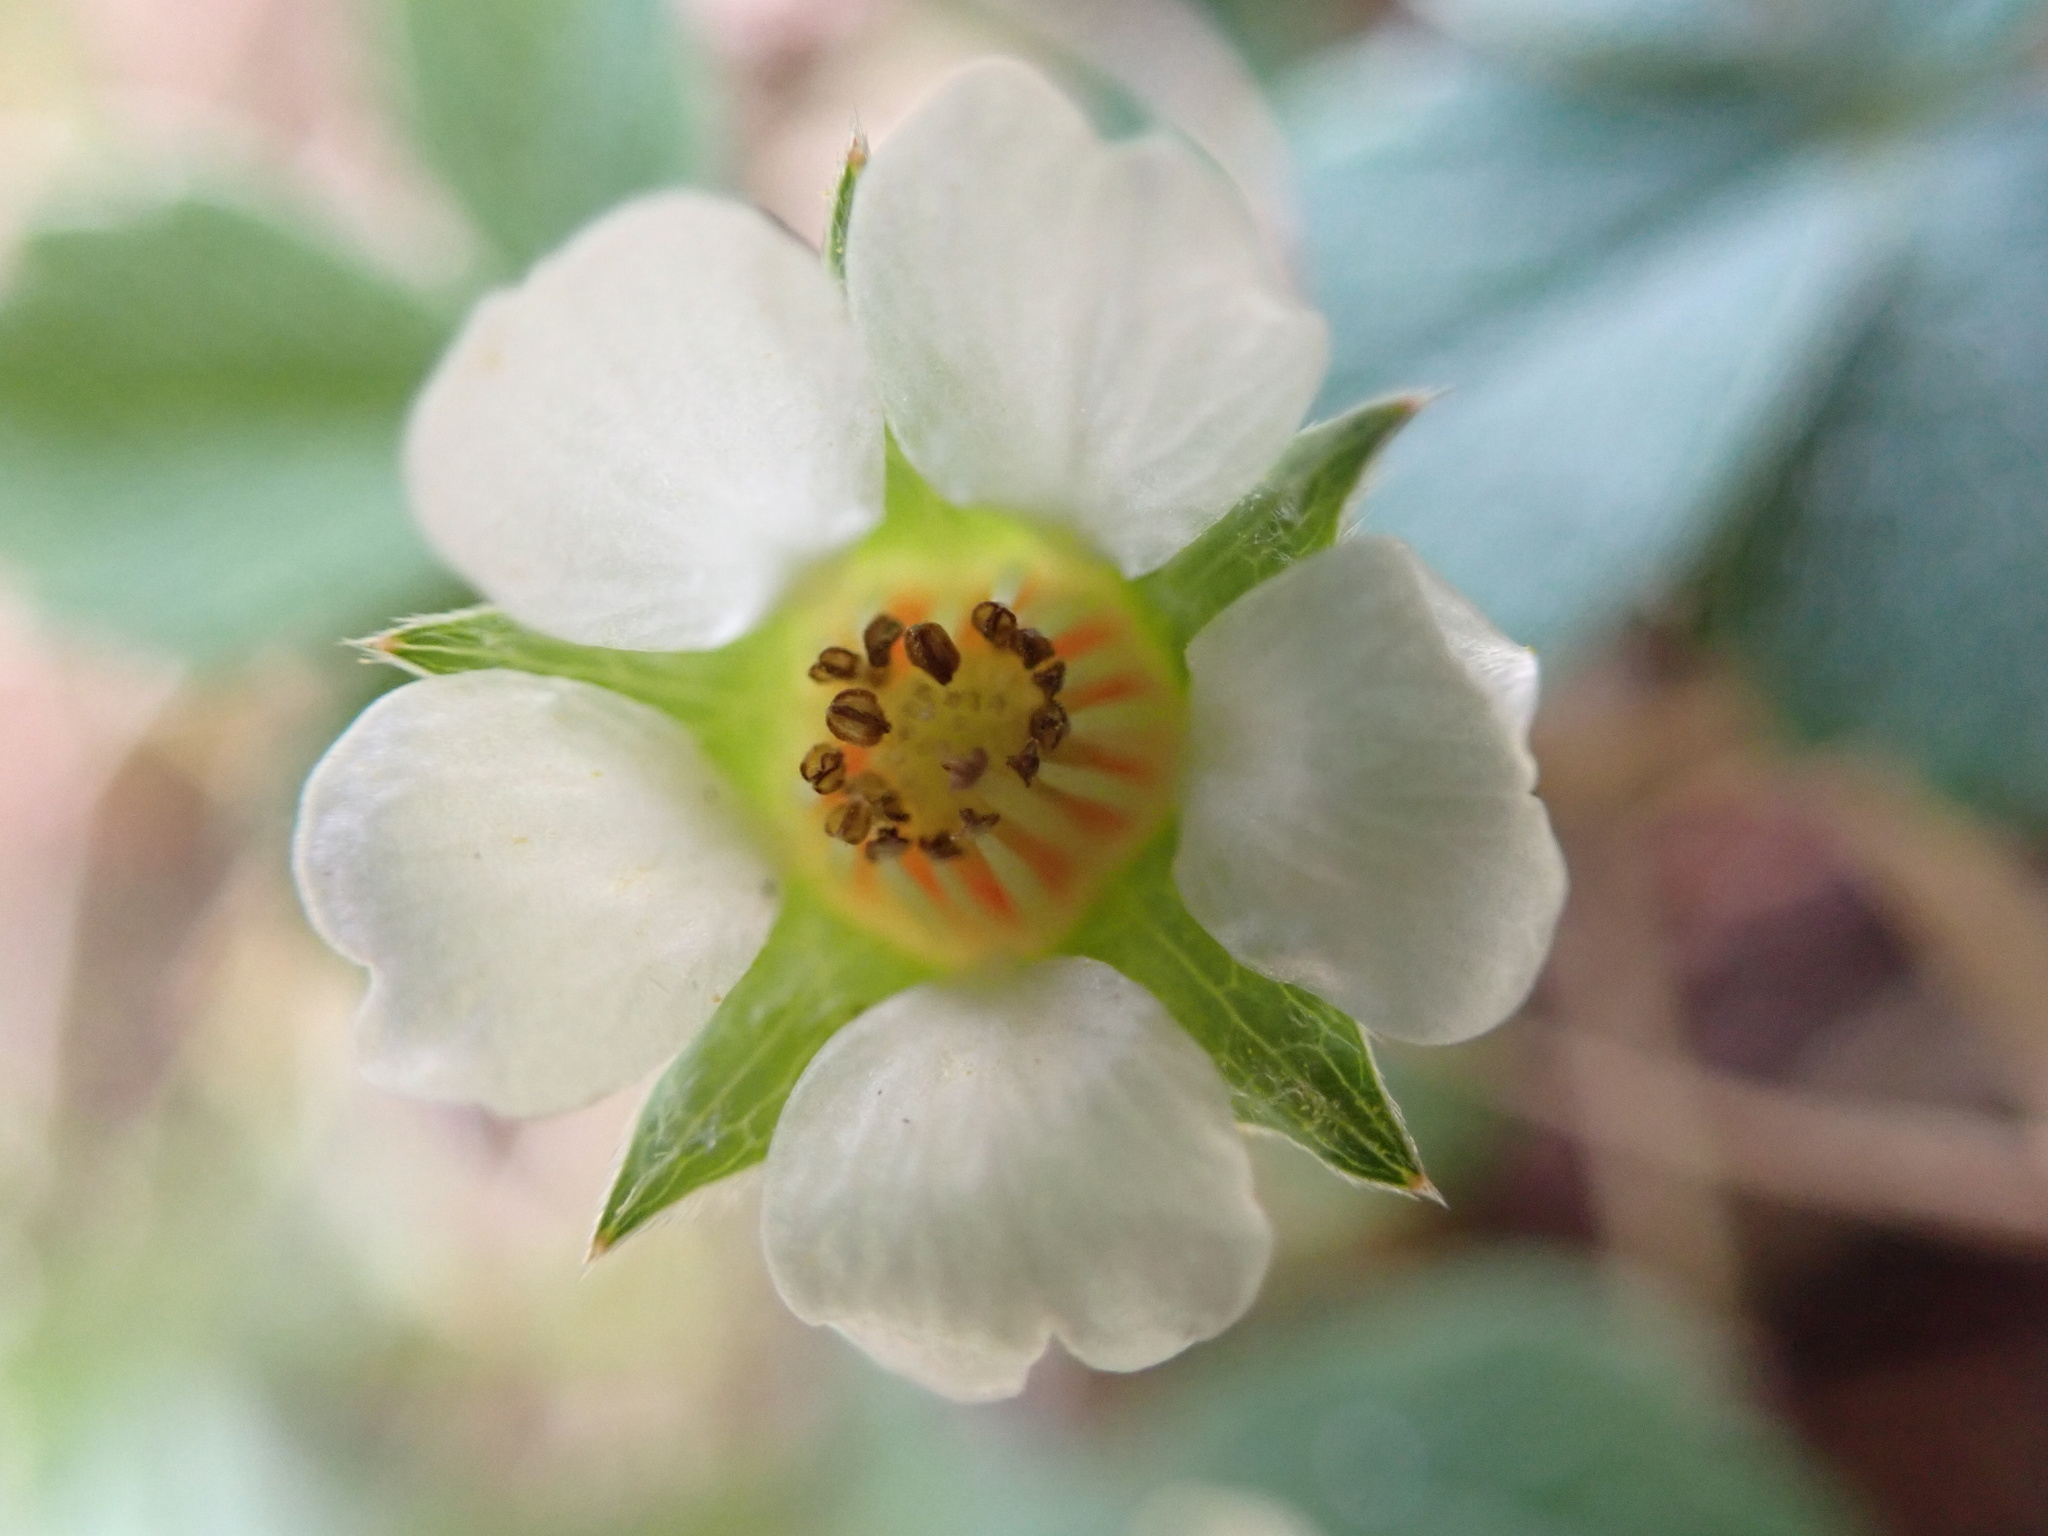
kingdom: Plantae
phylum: Tracheophyta
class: Magnoliopsida
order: Rosales
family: Rosaceae
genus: Potentilla
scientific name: Potentilla sterilis
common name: Barren strawberry
